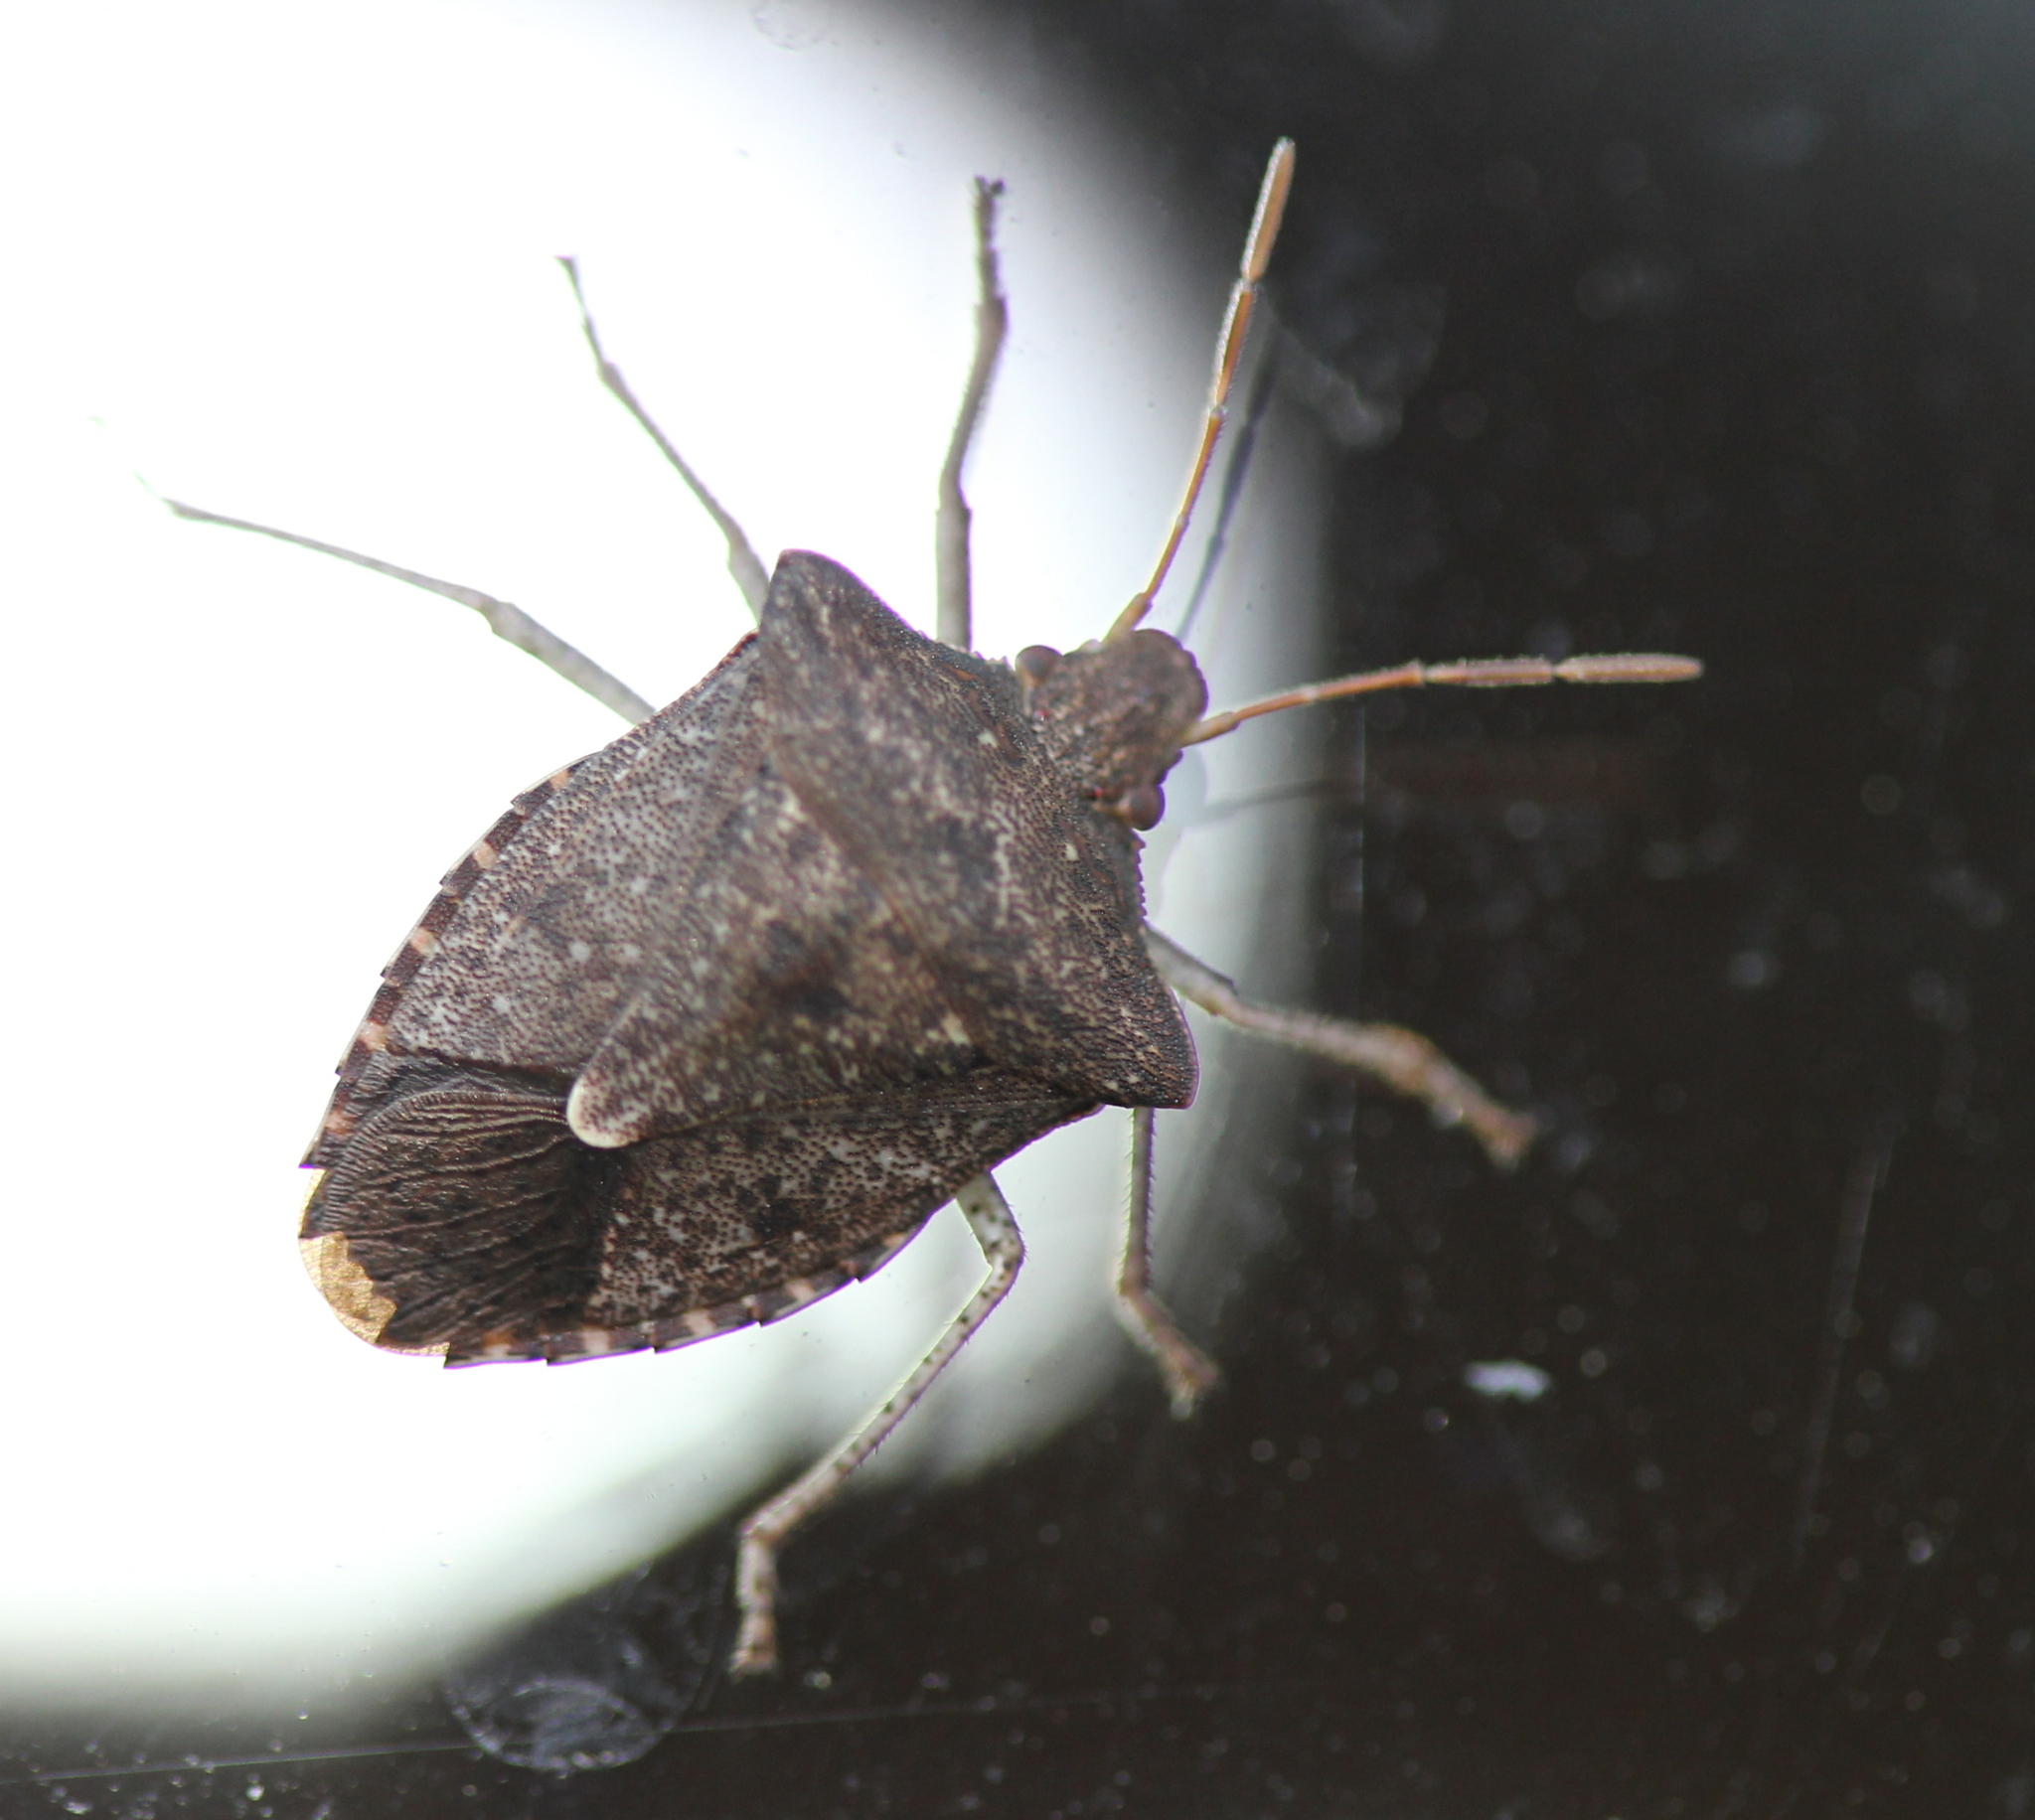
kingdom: Animalia
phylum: Arthropoda
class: Insecta
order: Hemiptera
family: Pentatomidae
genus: Euschistus
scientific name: Euschistus tristigmus
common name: Dusky stink bug
